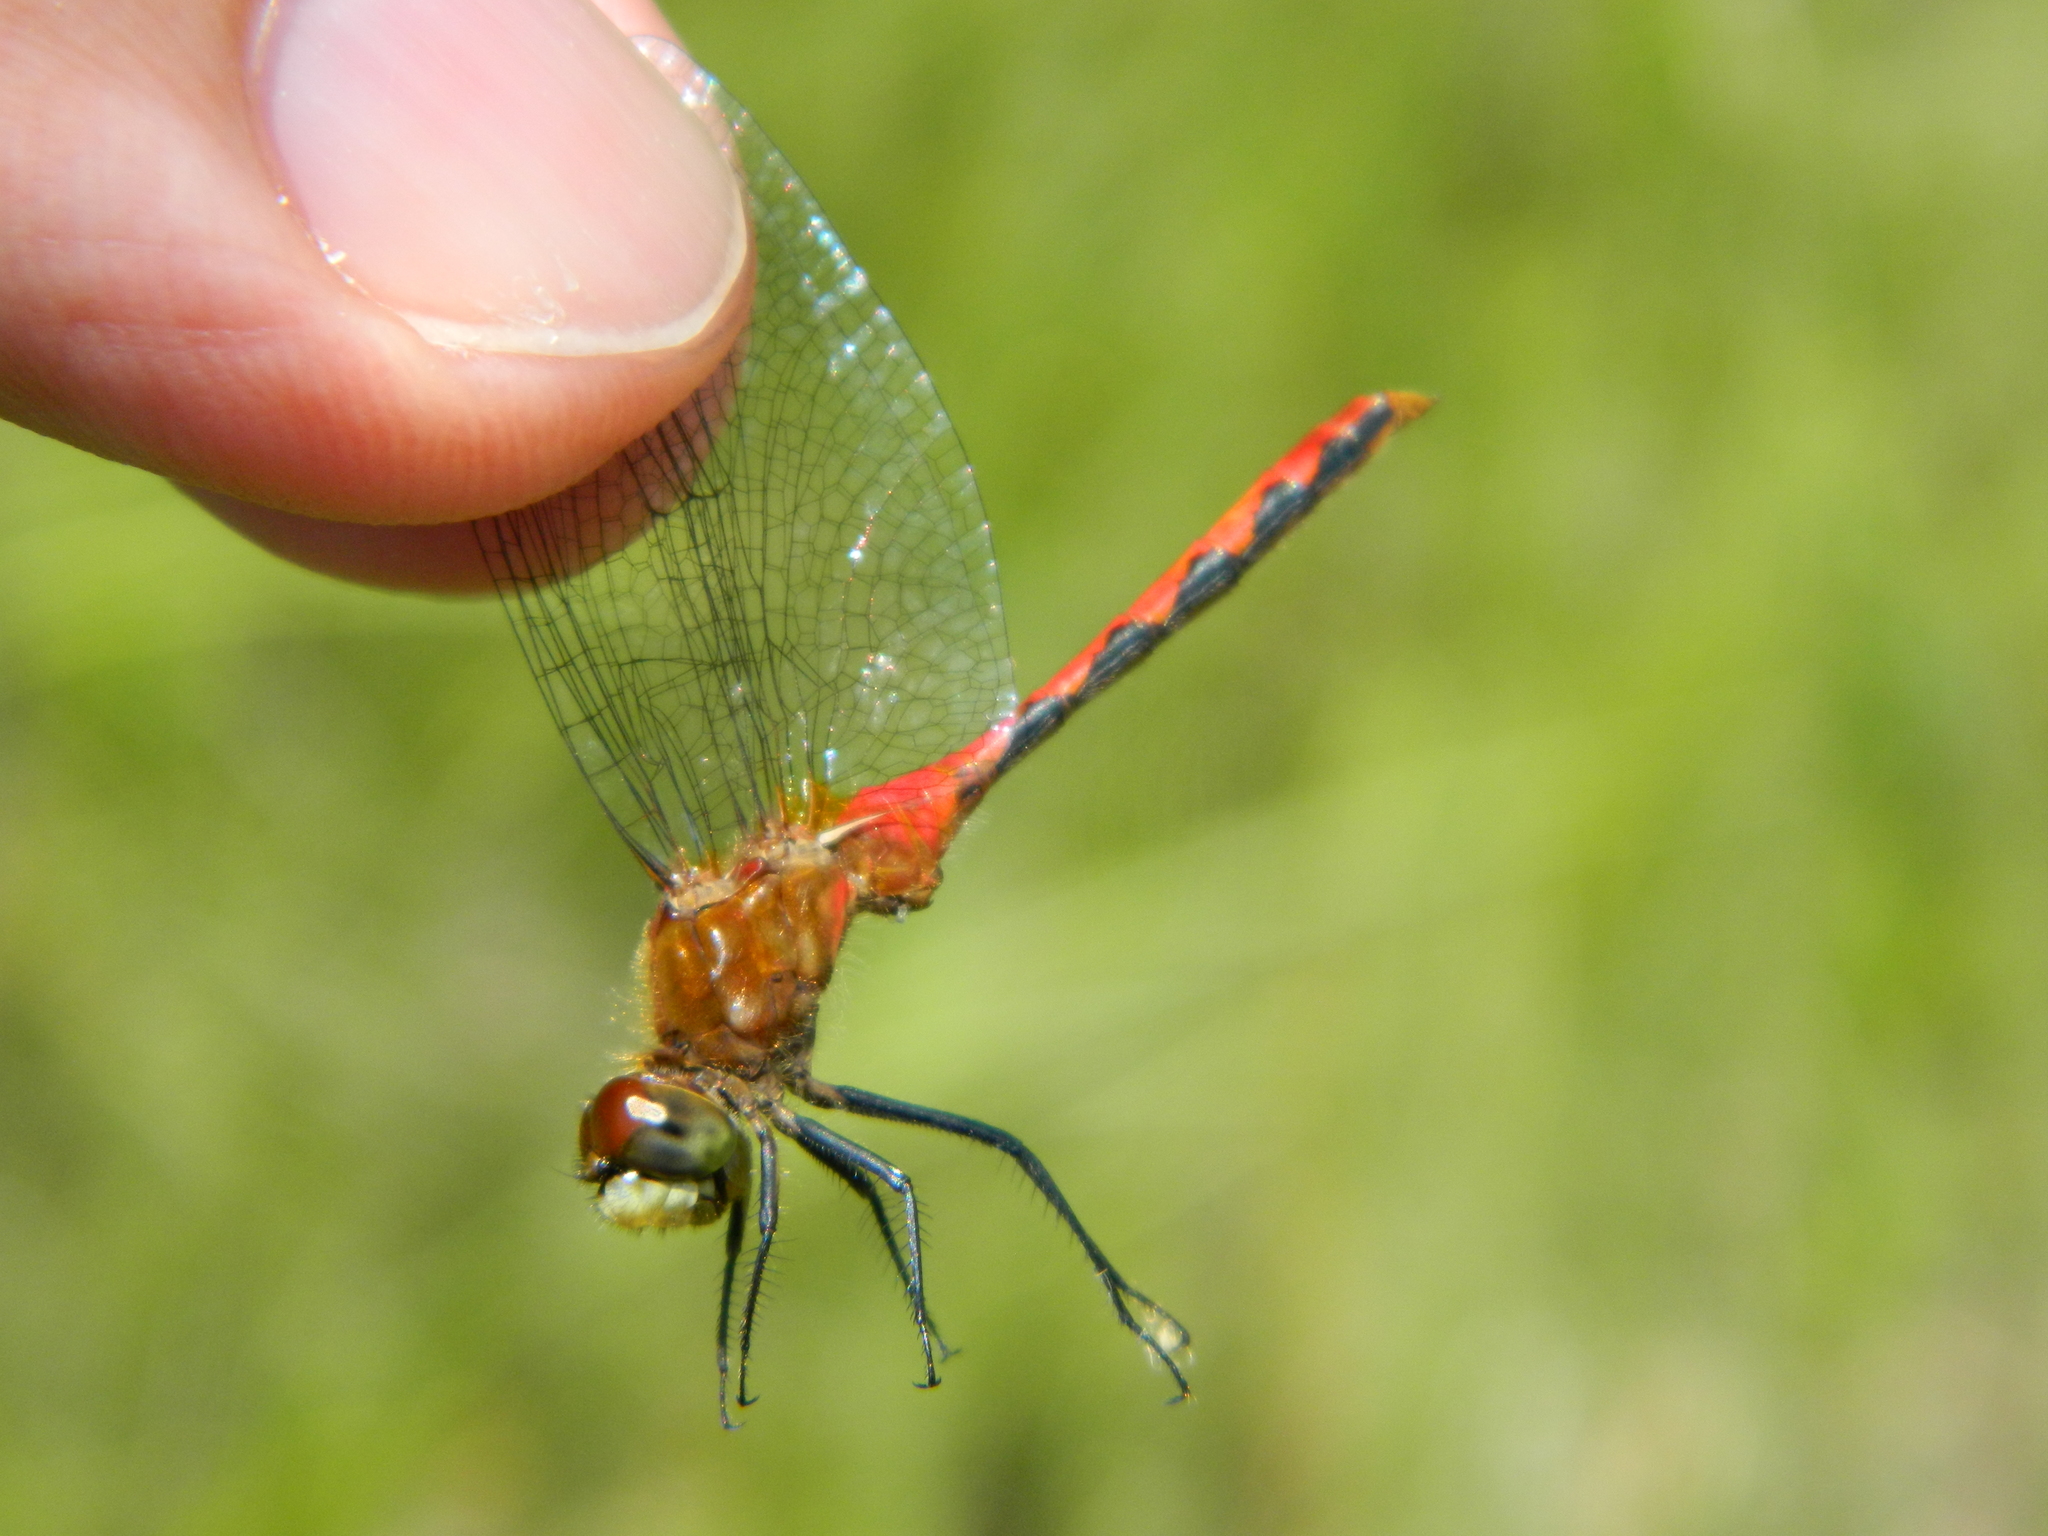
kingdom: Animalia
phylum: Arthropoda
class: Insecta
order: Odonata
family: Libellulidae
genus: Sympetrum
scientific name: Sympetrum obtrusum
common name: White-faced meadowhawk
